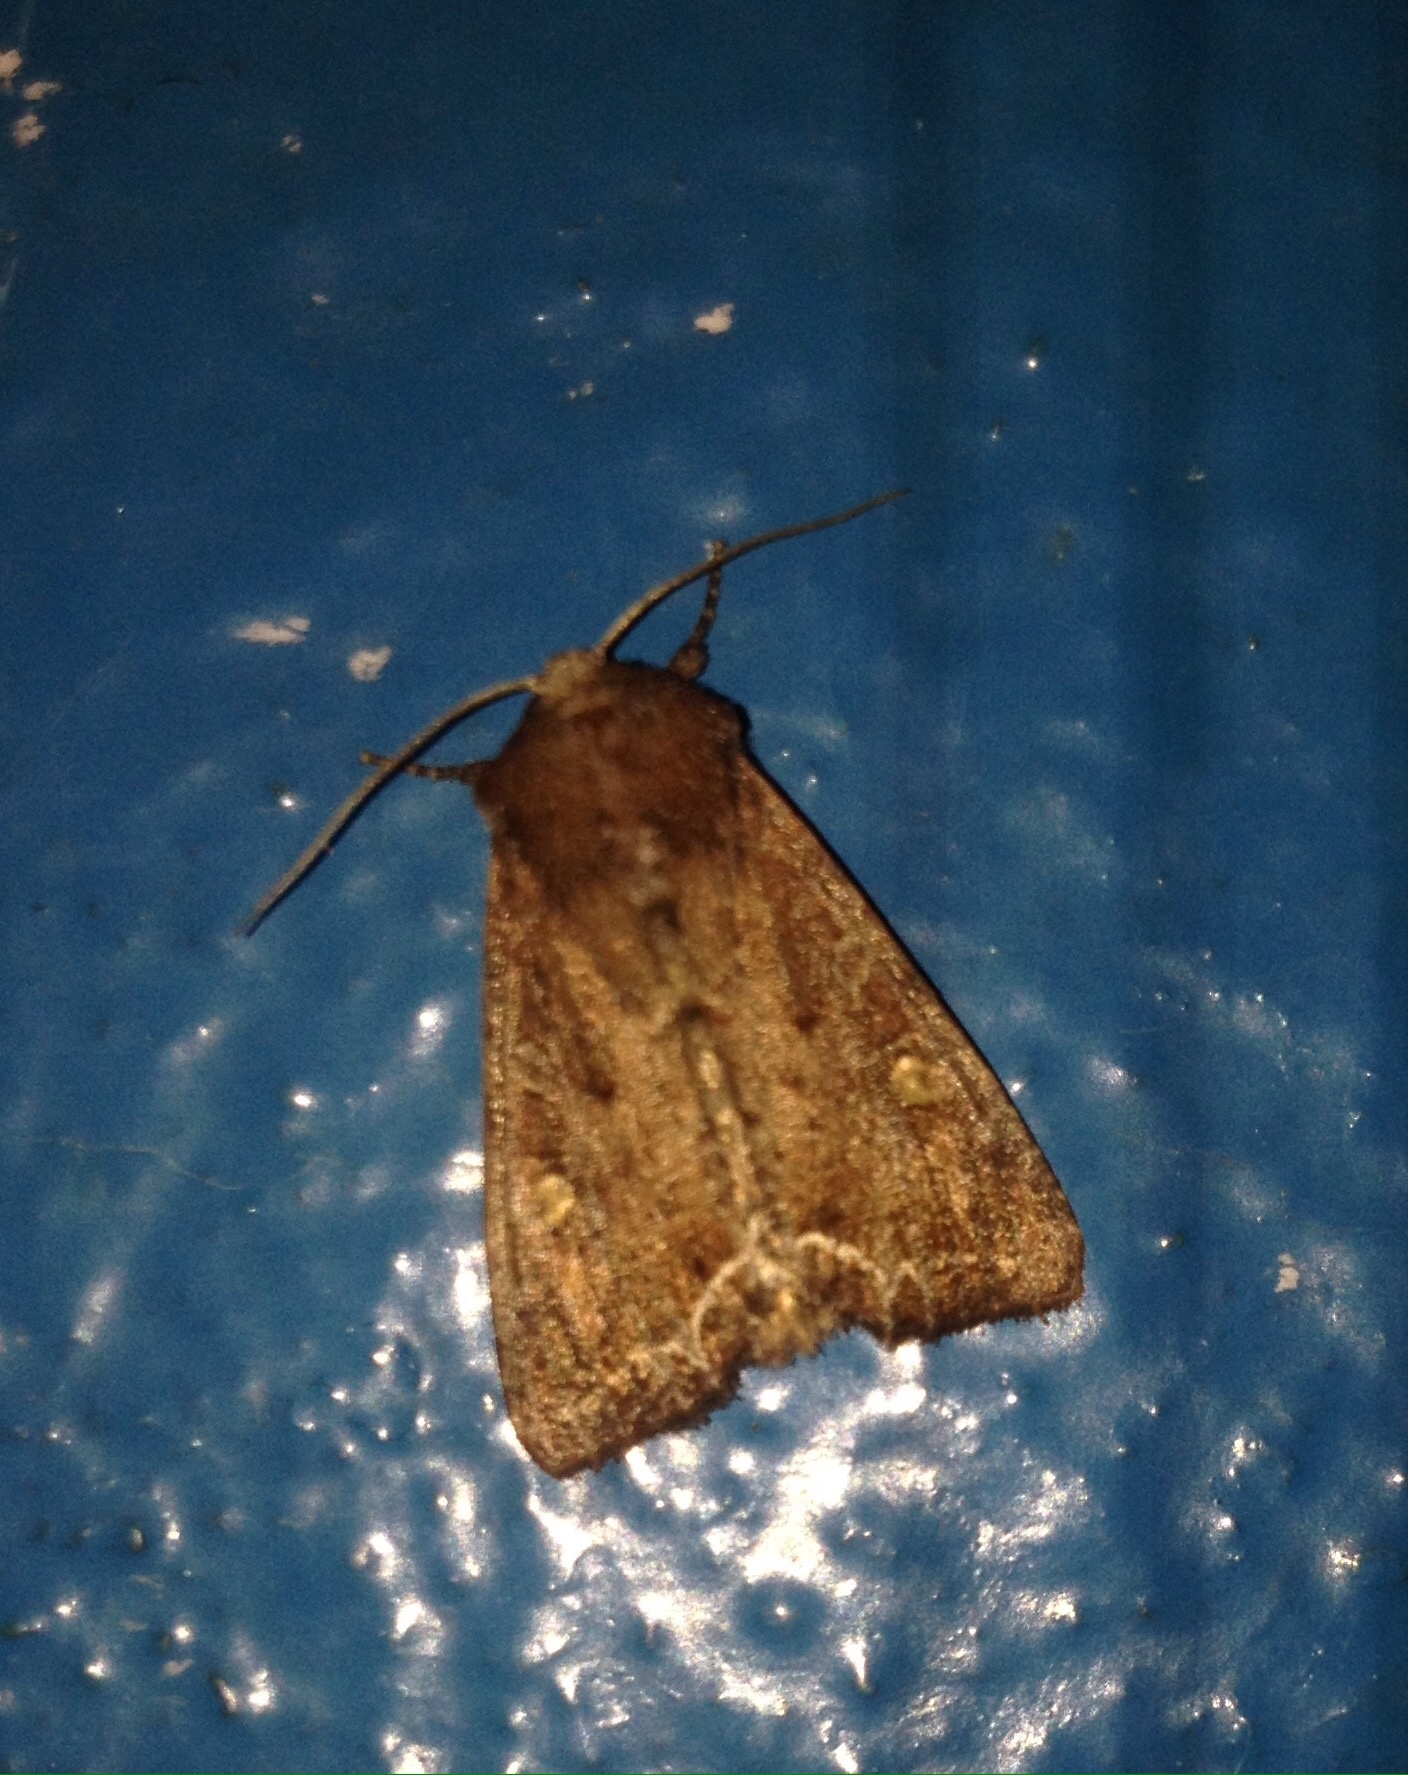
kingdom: Animalia
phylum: Arthropoda
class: Insecta
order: Lepidoptera
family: Noctuidae
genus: Lacanobia
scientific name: Lacanobia oleracea
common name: Bright-line brown-eye
